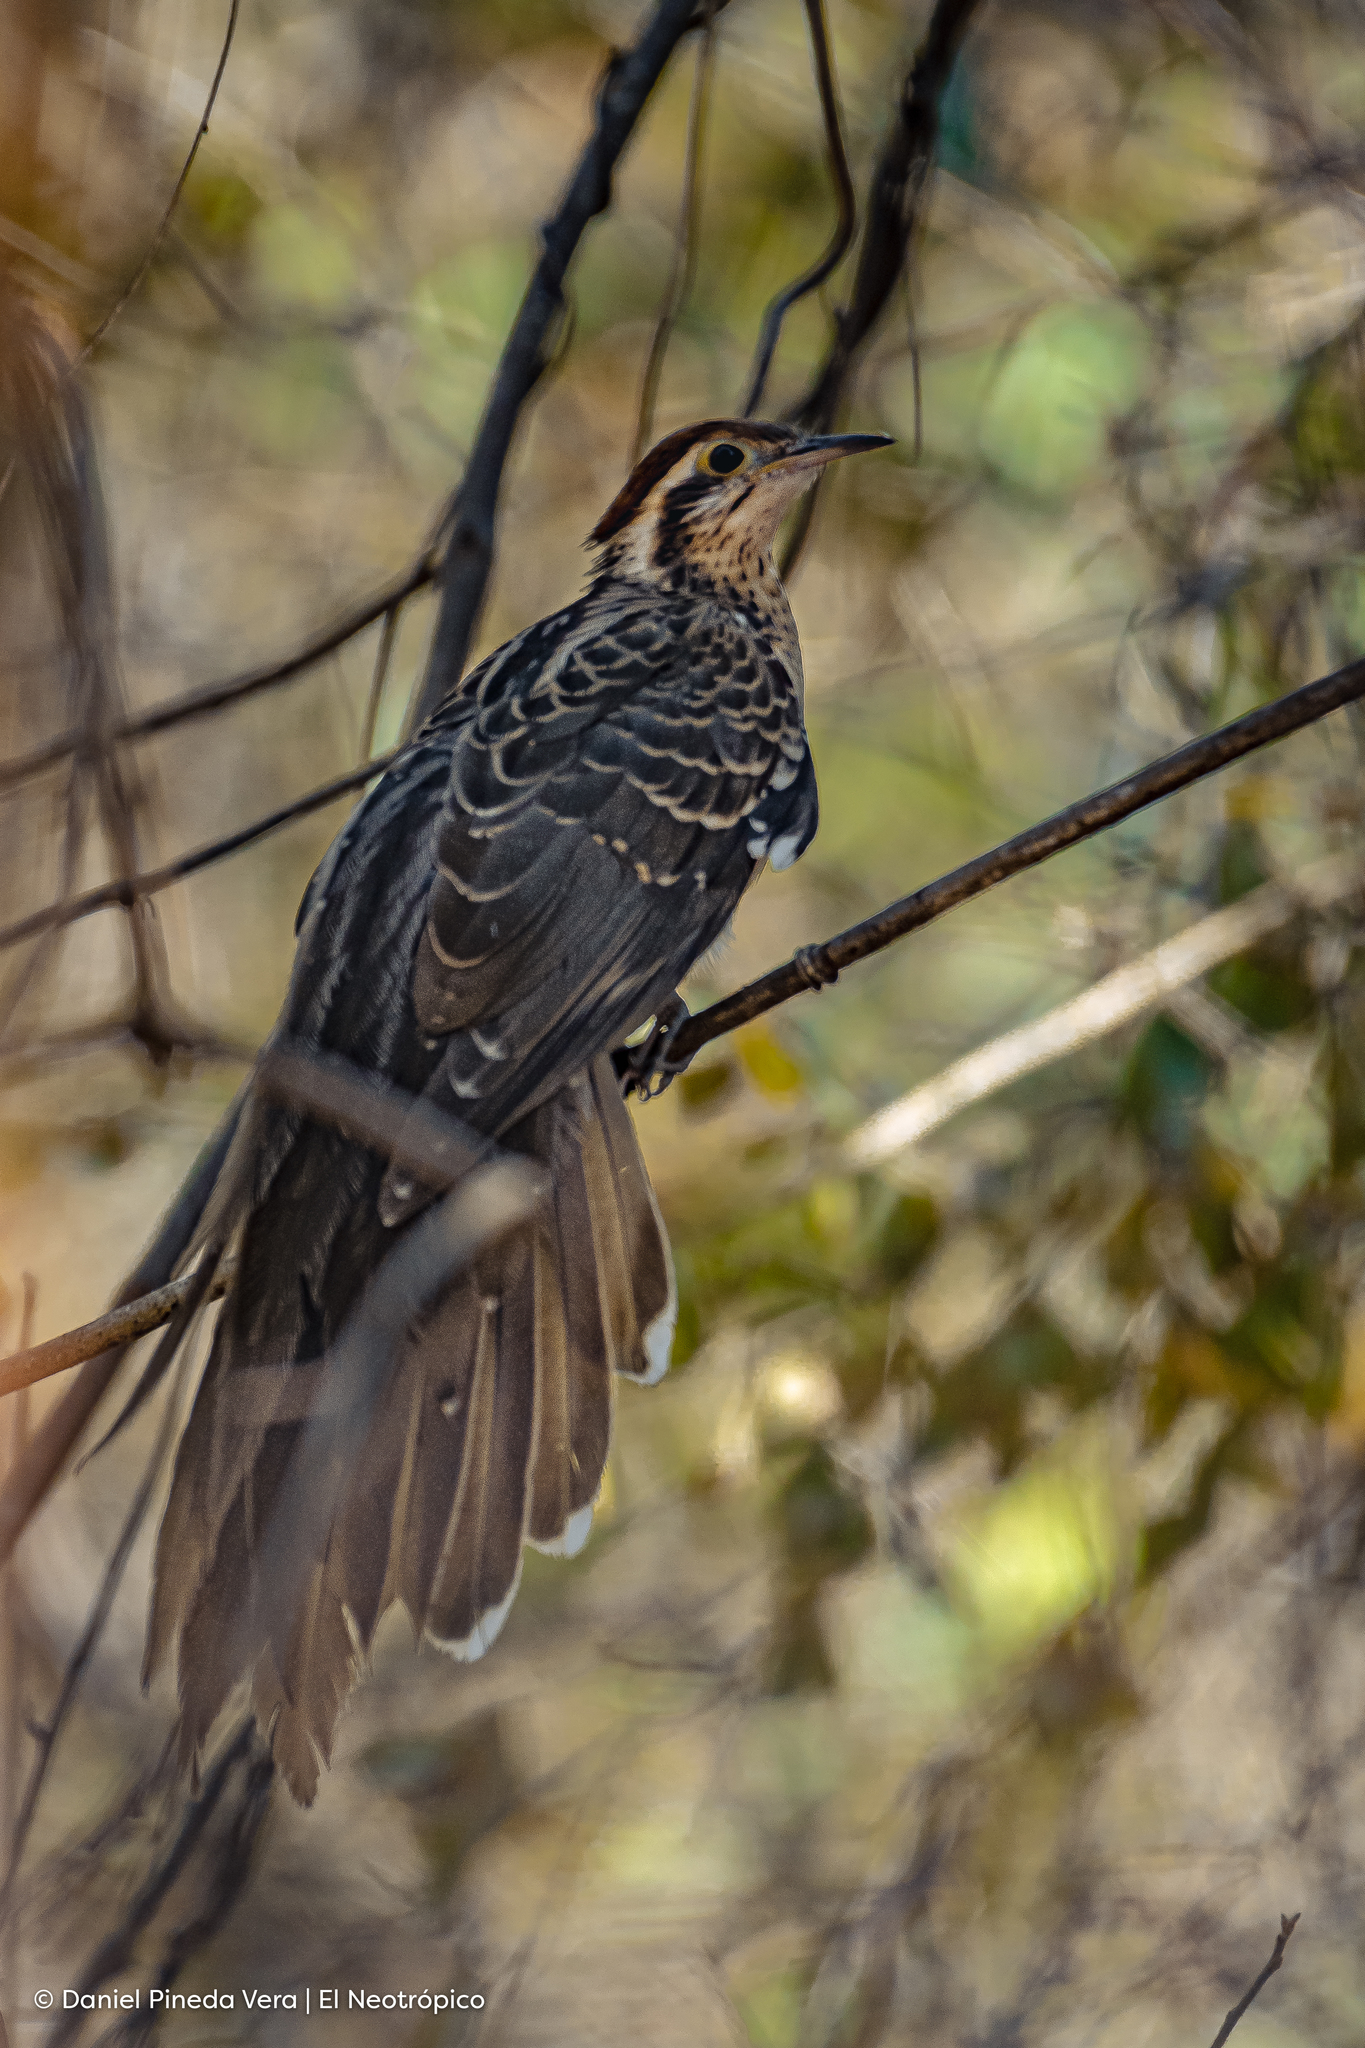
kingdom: Animalia
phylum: Chordata
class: Aves
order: Cuculiformes
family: Cuculidae
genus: Dromococcyx
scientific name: Dromococcyx phasianellus
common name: Pheasant cuckoo
